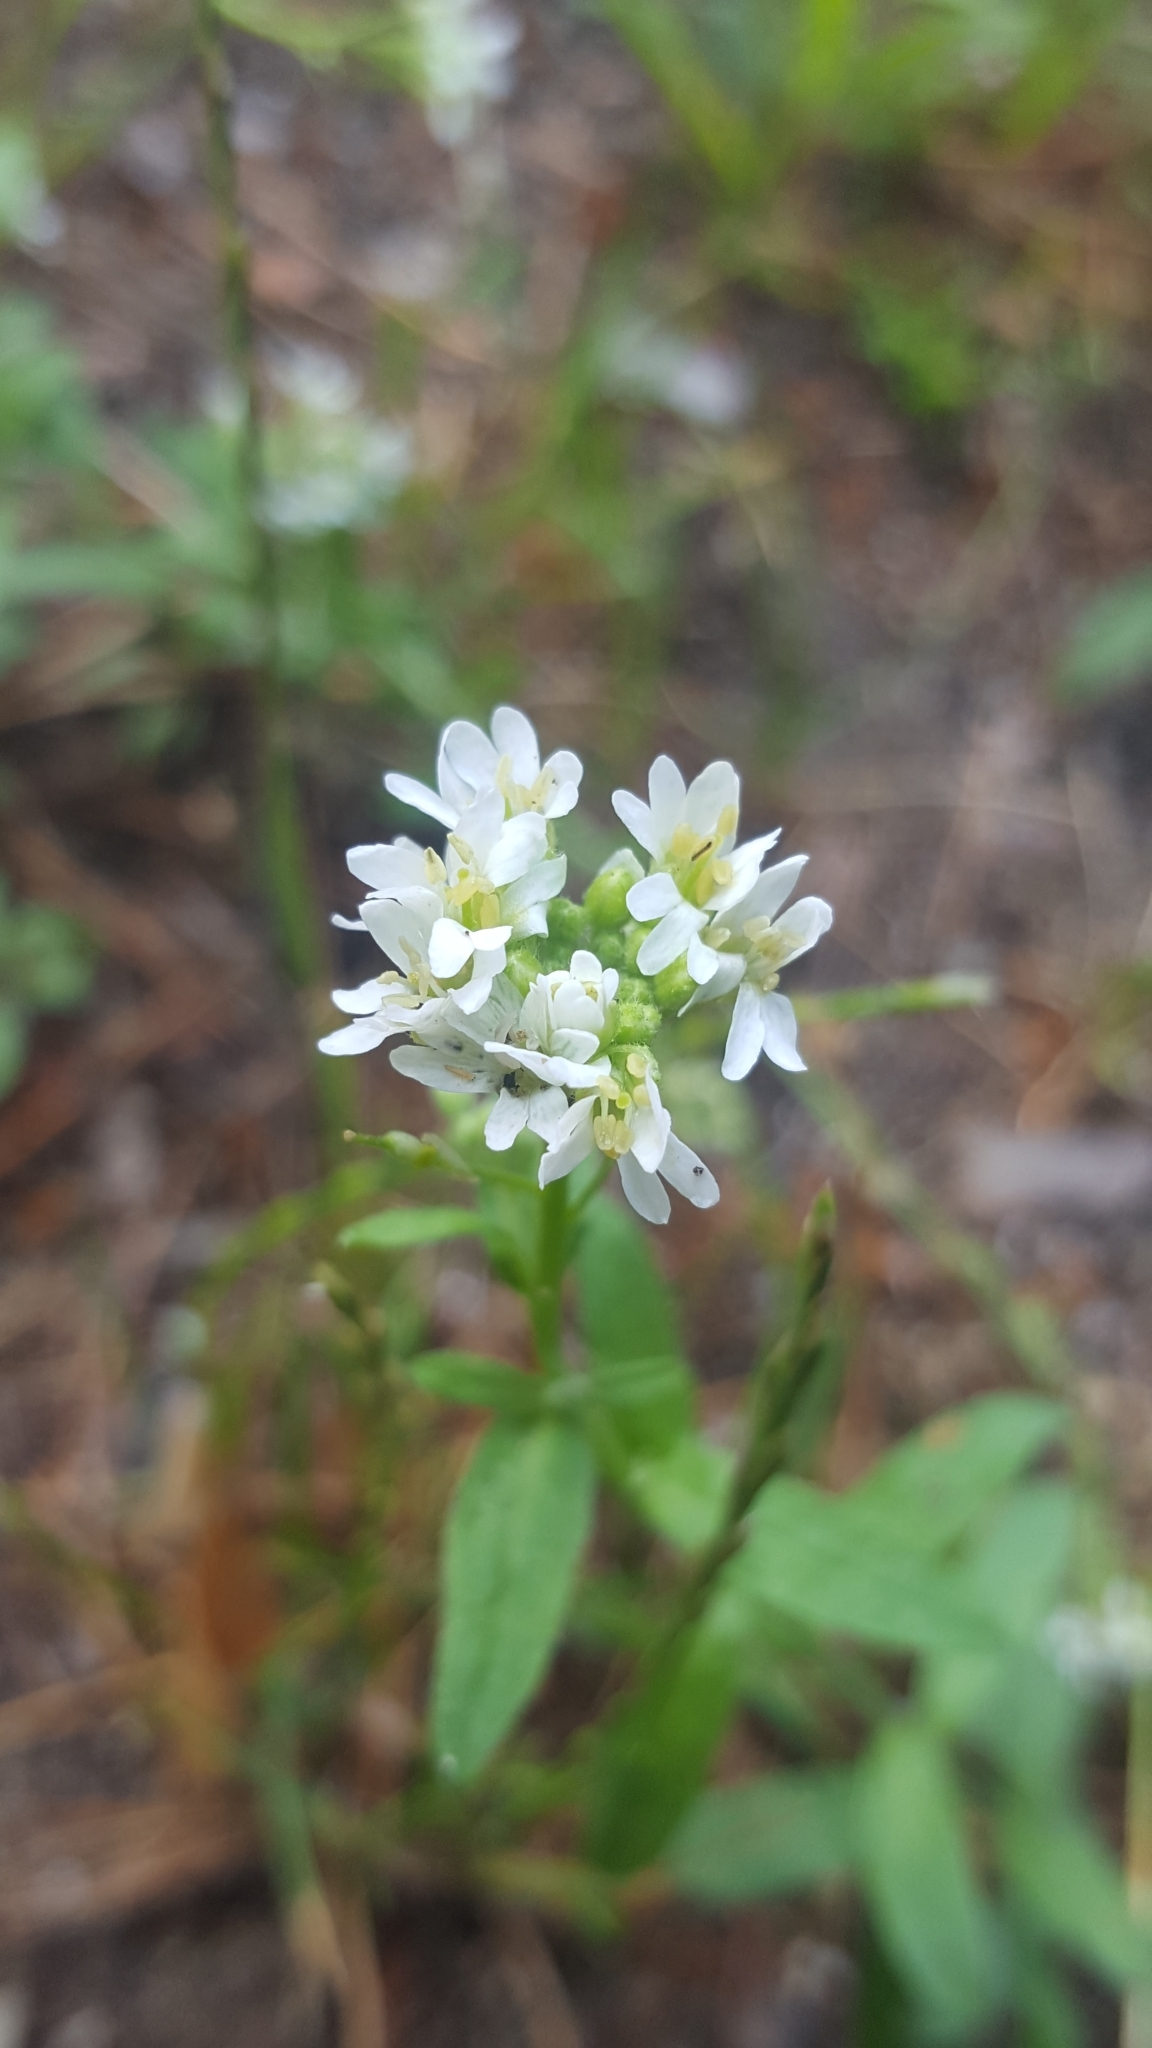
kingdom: Plantae
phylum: Tracheophyta
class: Magnoliopsida
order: Brassicales
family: Brassicaceae
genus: Berteroa
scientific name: Berteroa incana
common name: Hoary alison
